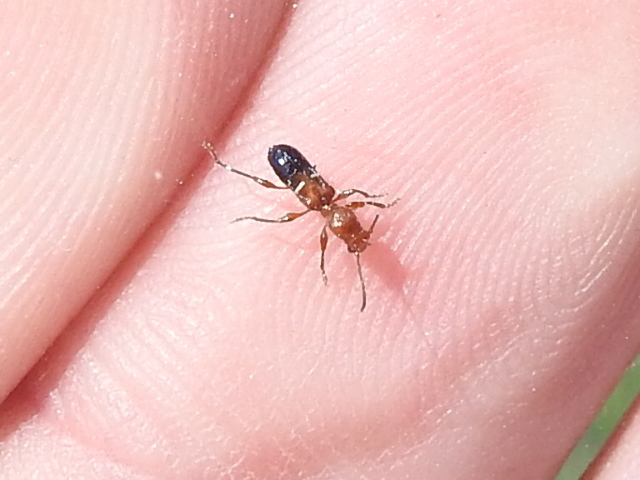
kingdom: Animalia
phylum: Arthropoda
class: Insecta
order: Coleoptera
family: Cerambycidae
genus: Euderces
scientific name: Euderces reichei
